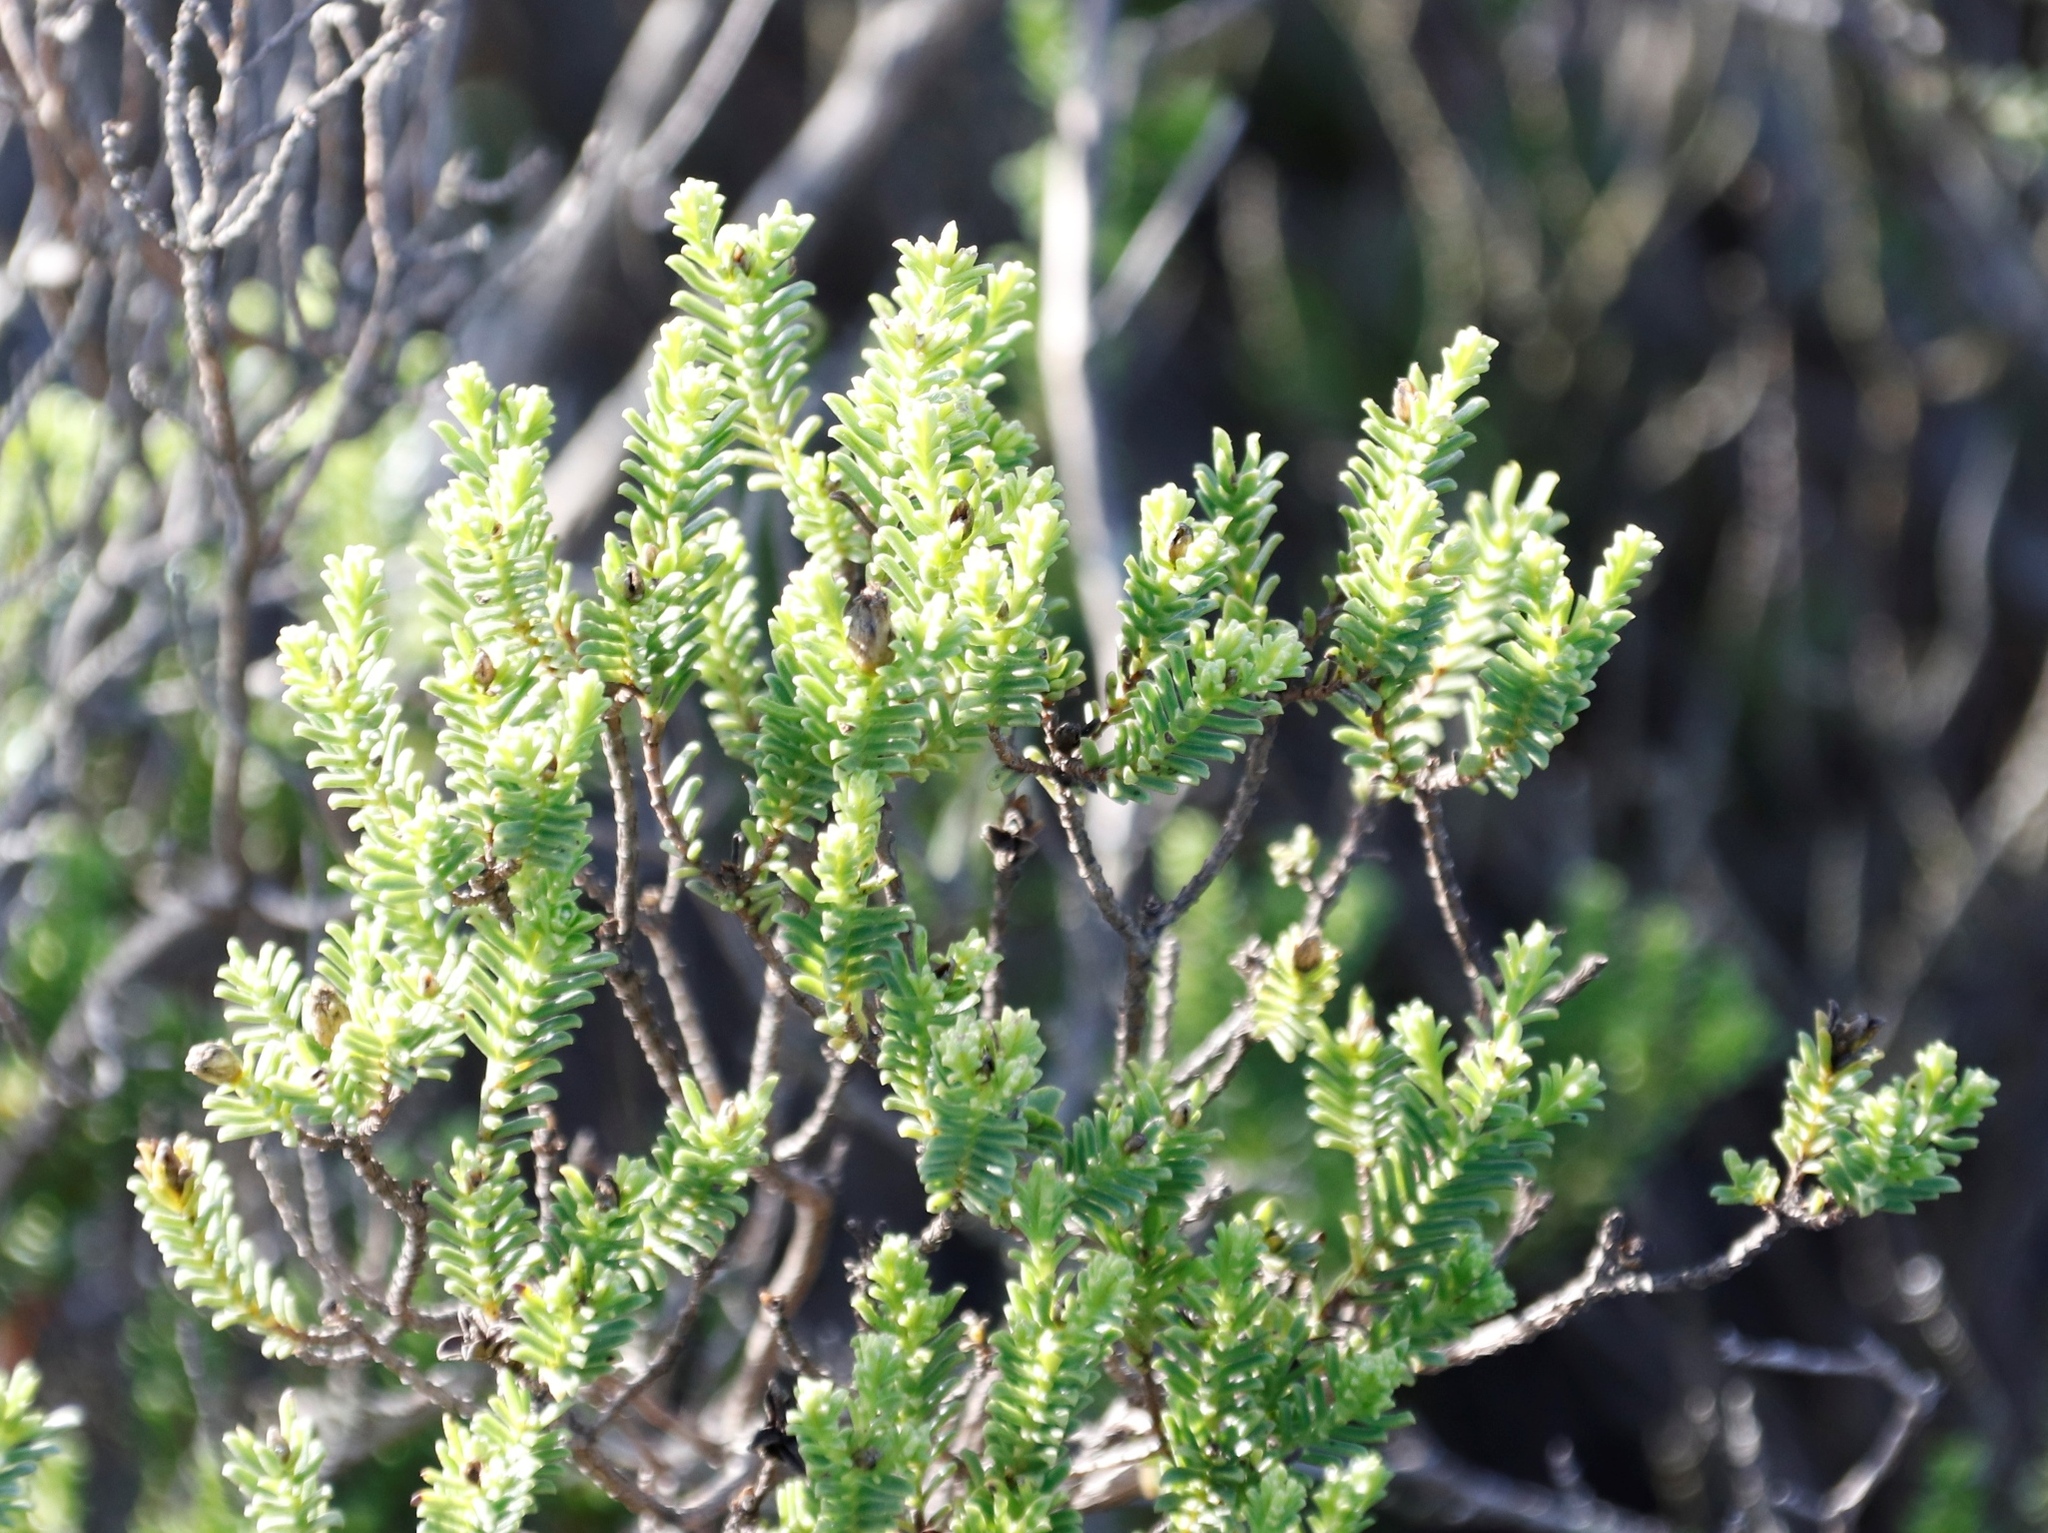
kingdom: Plantae
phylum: Tracheophyta
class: Magnoliopsida
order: Asterales
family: Asteraceae
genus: Oedera
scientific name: Oedera uniflora
